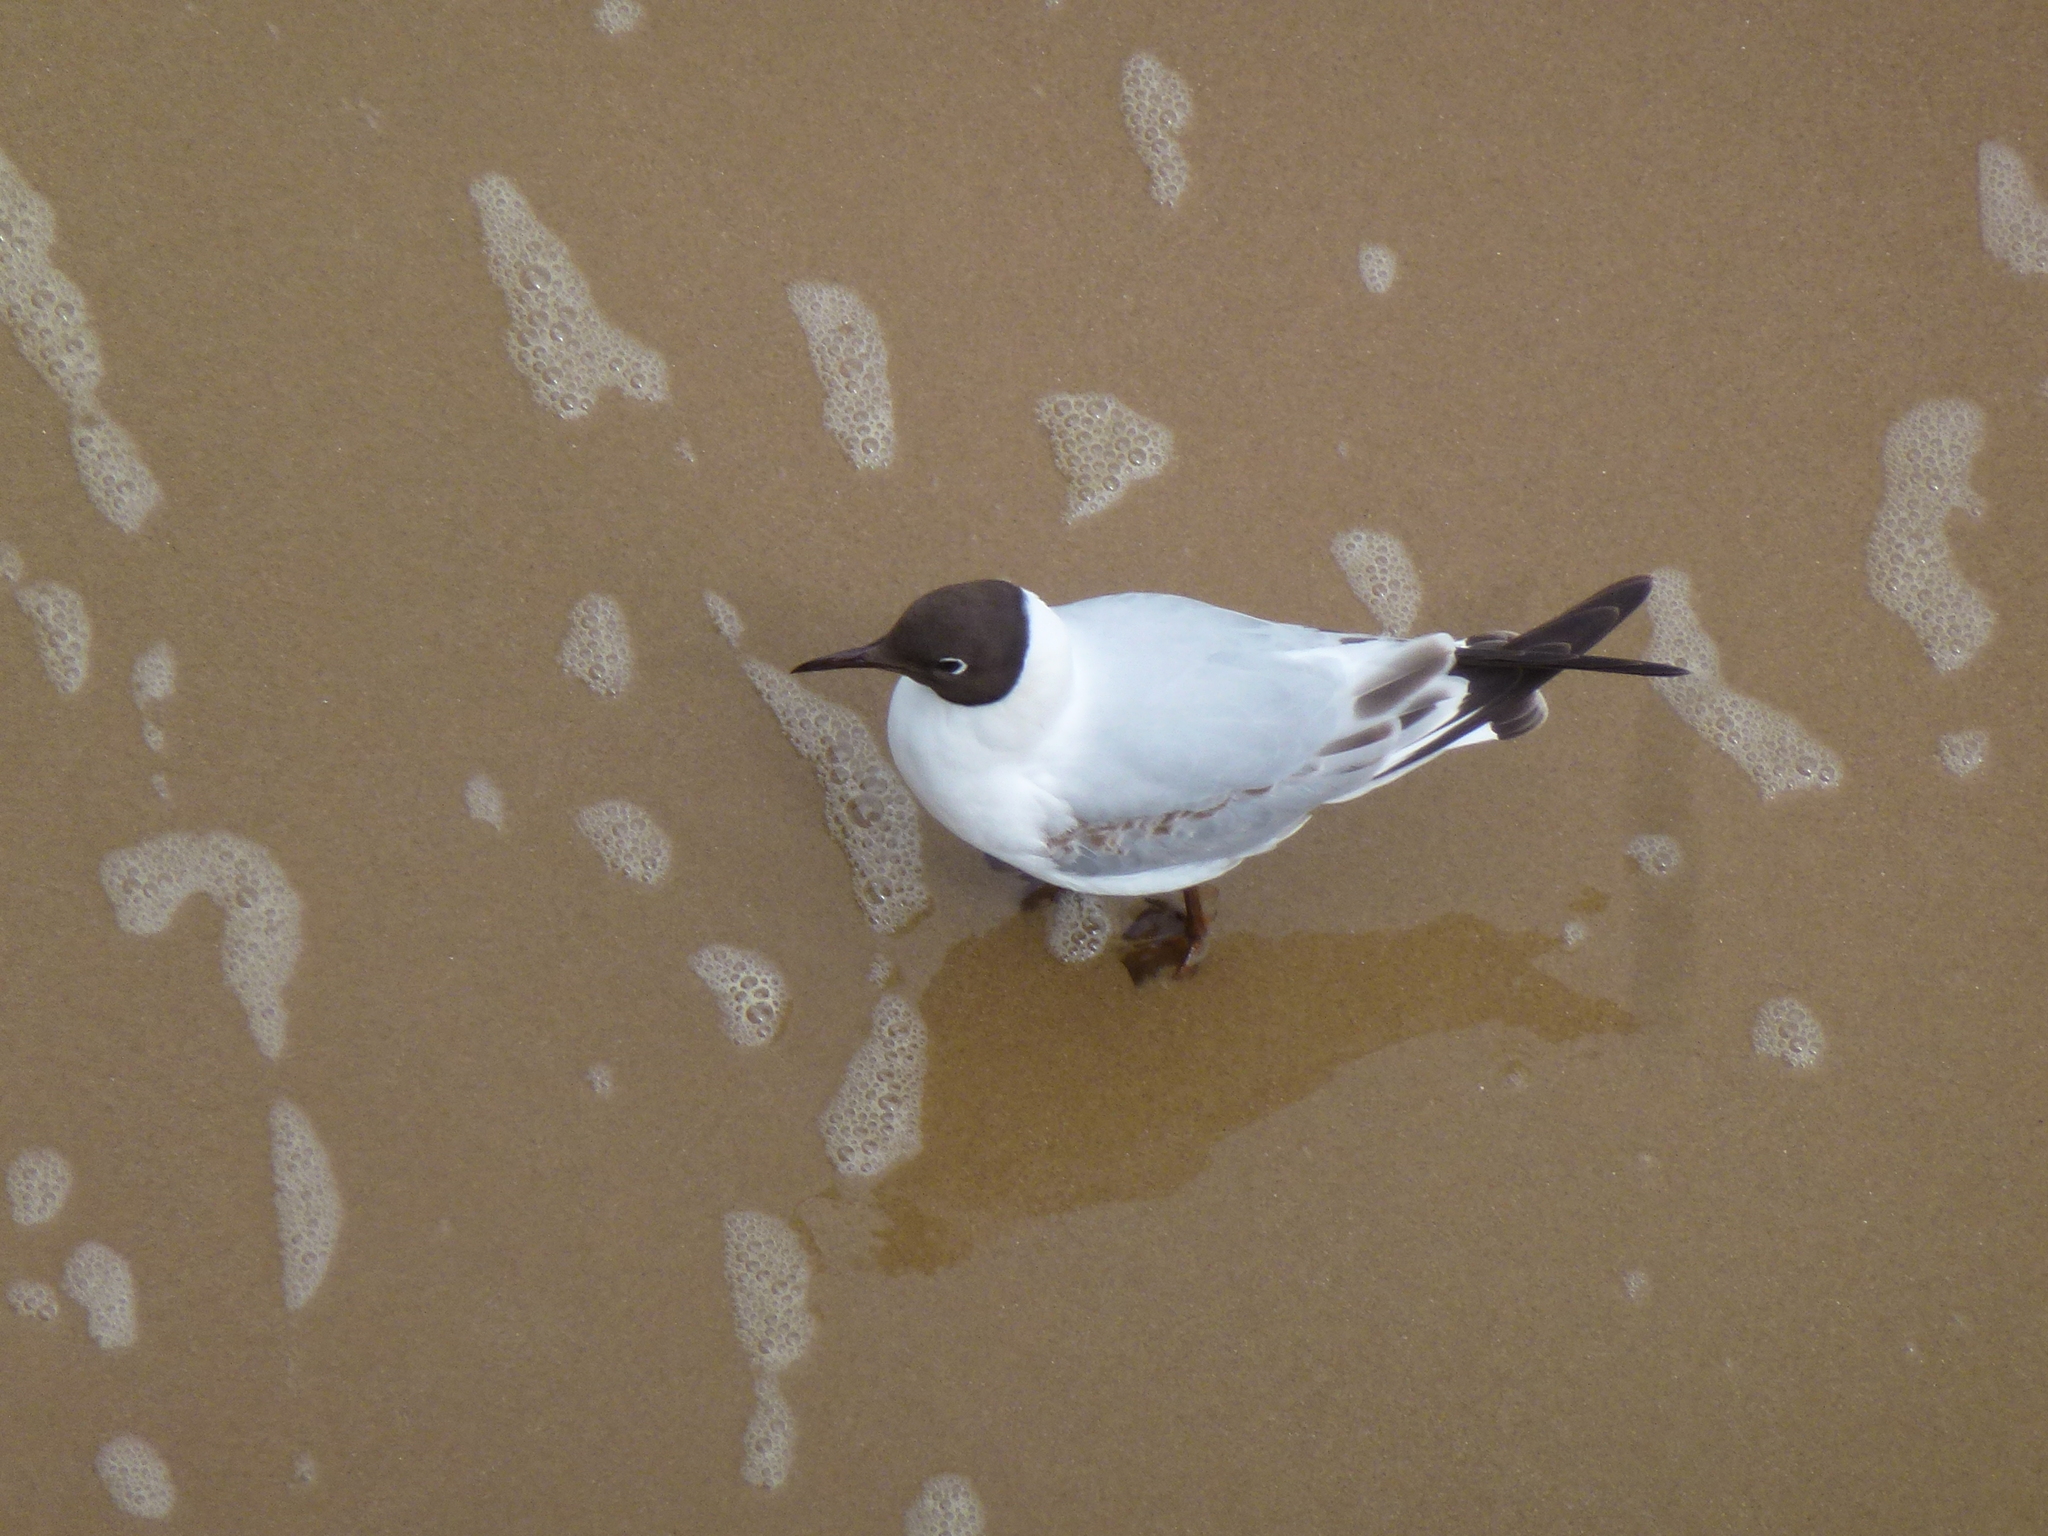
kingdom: Animalia
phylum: Chordata
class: Aves
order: Charadriiformes
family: Laridae
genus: Chroicocephalus
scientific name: Chroicocephalus ridibundus
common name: Black-headed gull
